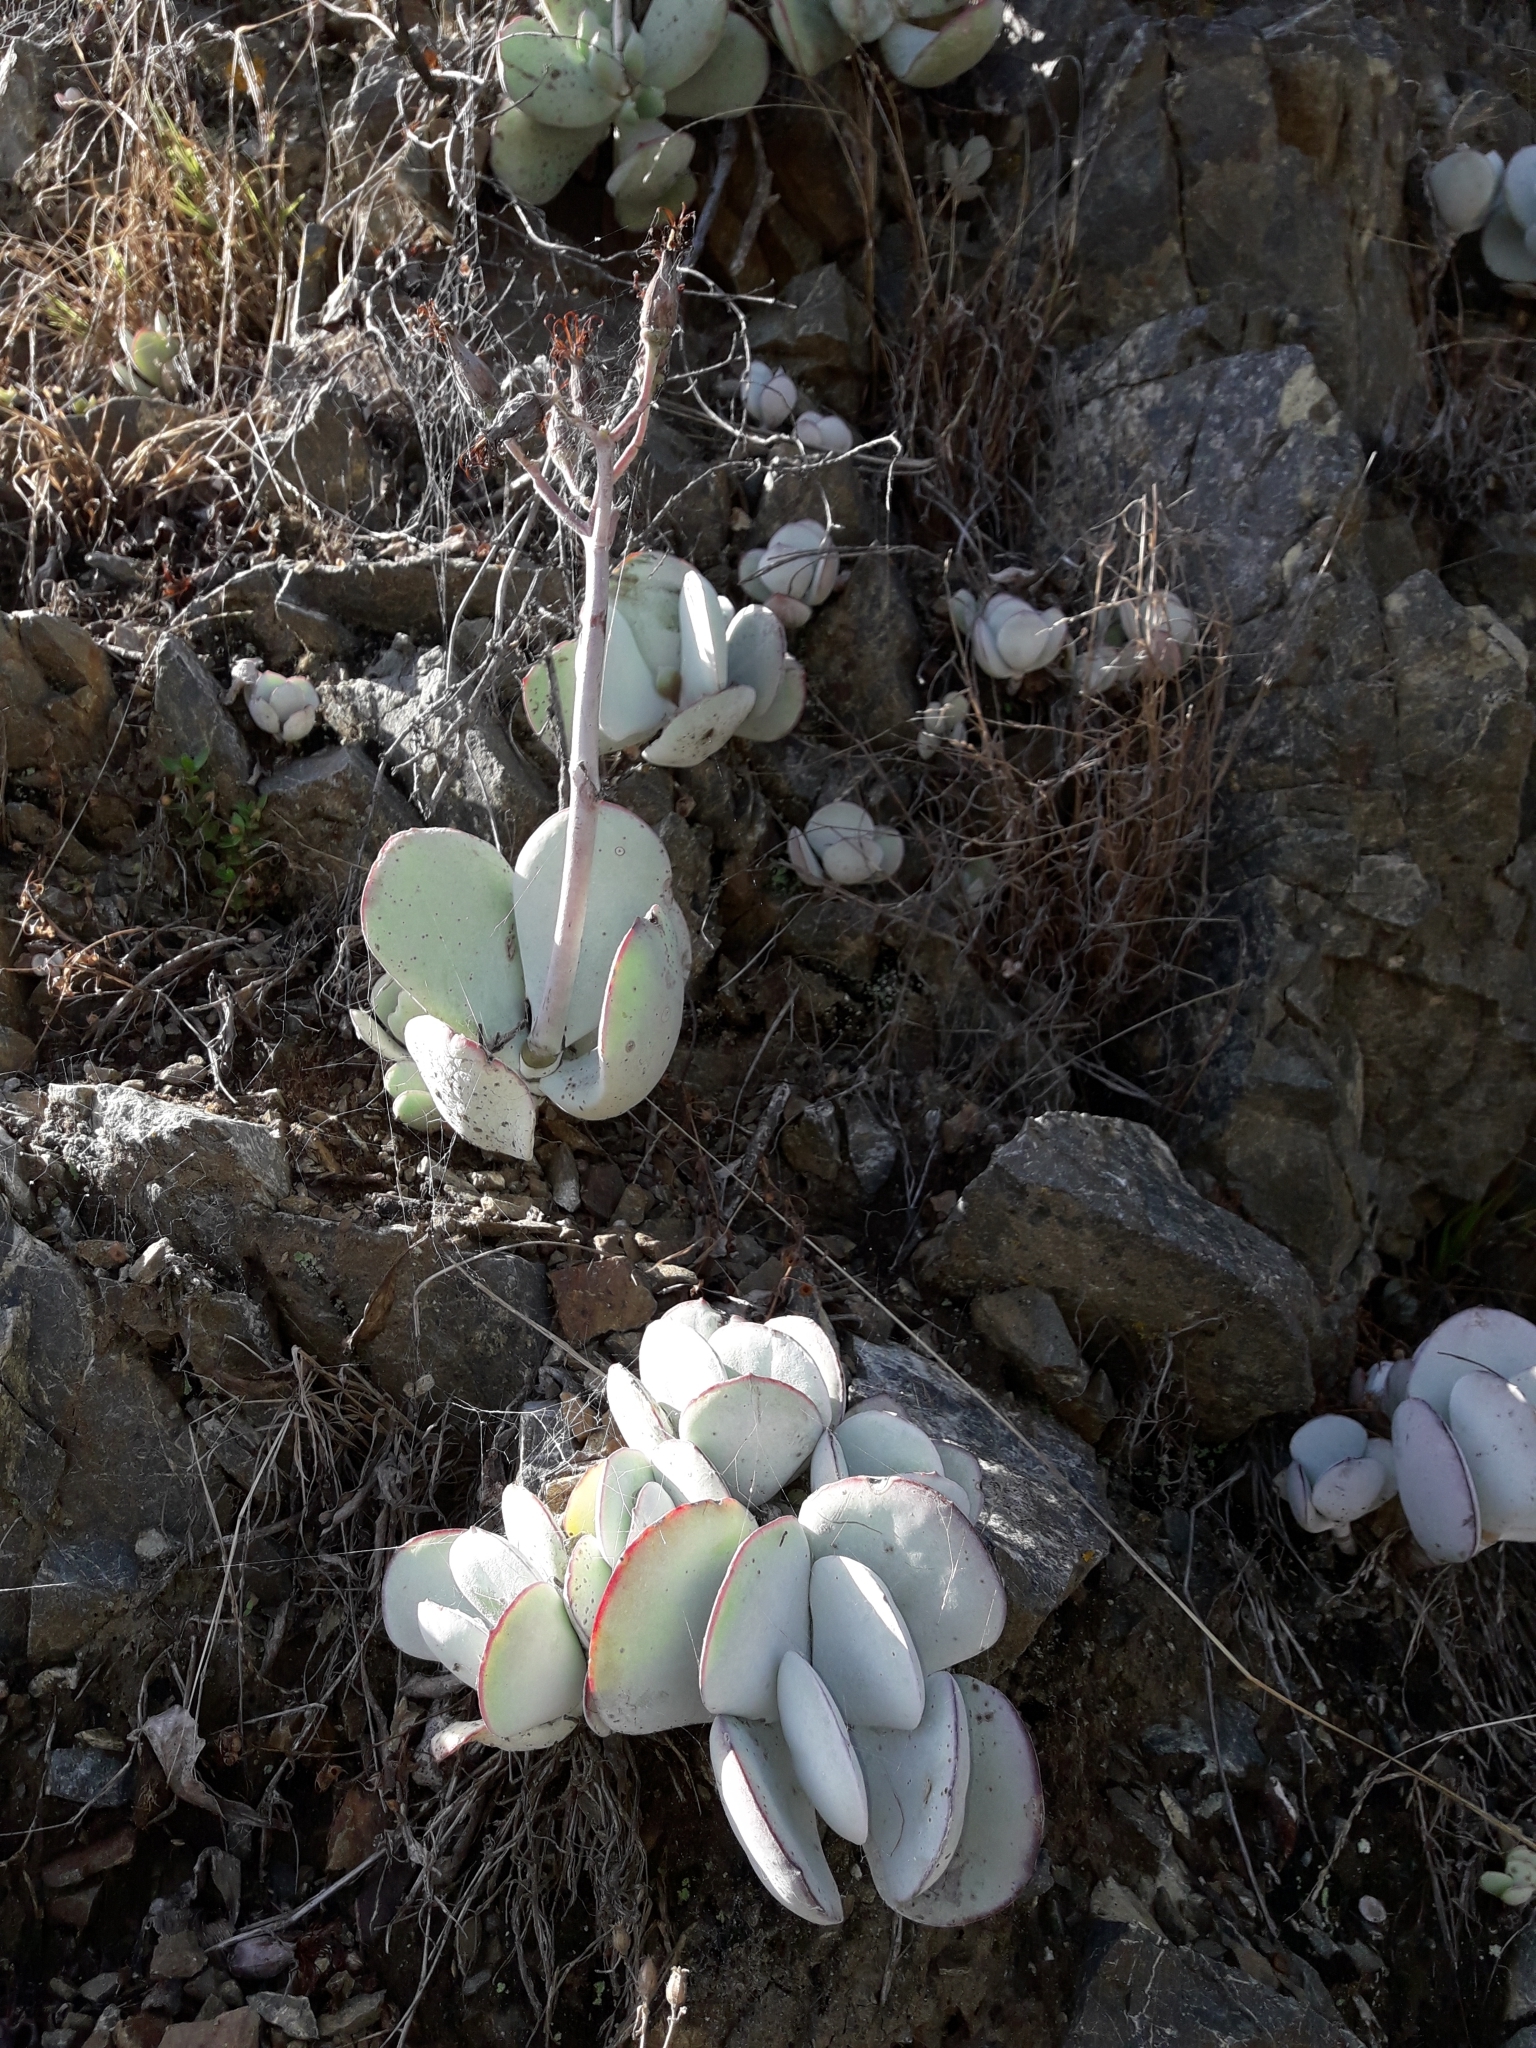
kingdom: Plantae
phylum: Tracheophyta
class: Magnoliopsida
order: Saxifragales
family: Crassulaceae
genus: Cotyledon
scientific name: Cotyledon orbiculata
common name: Pig's ear
